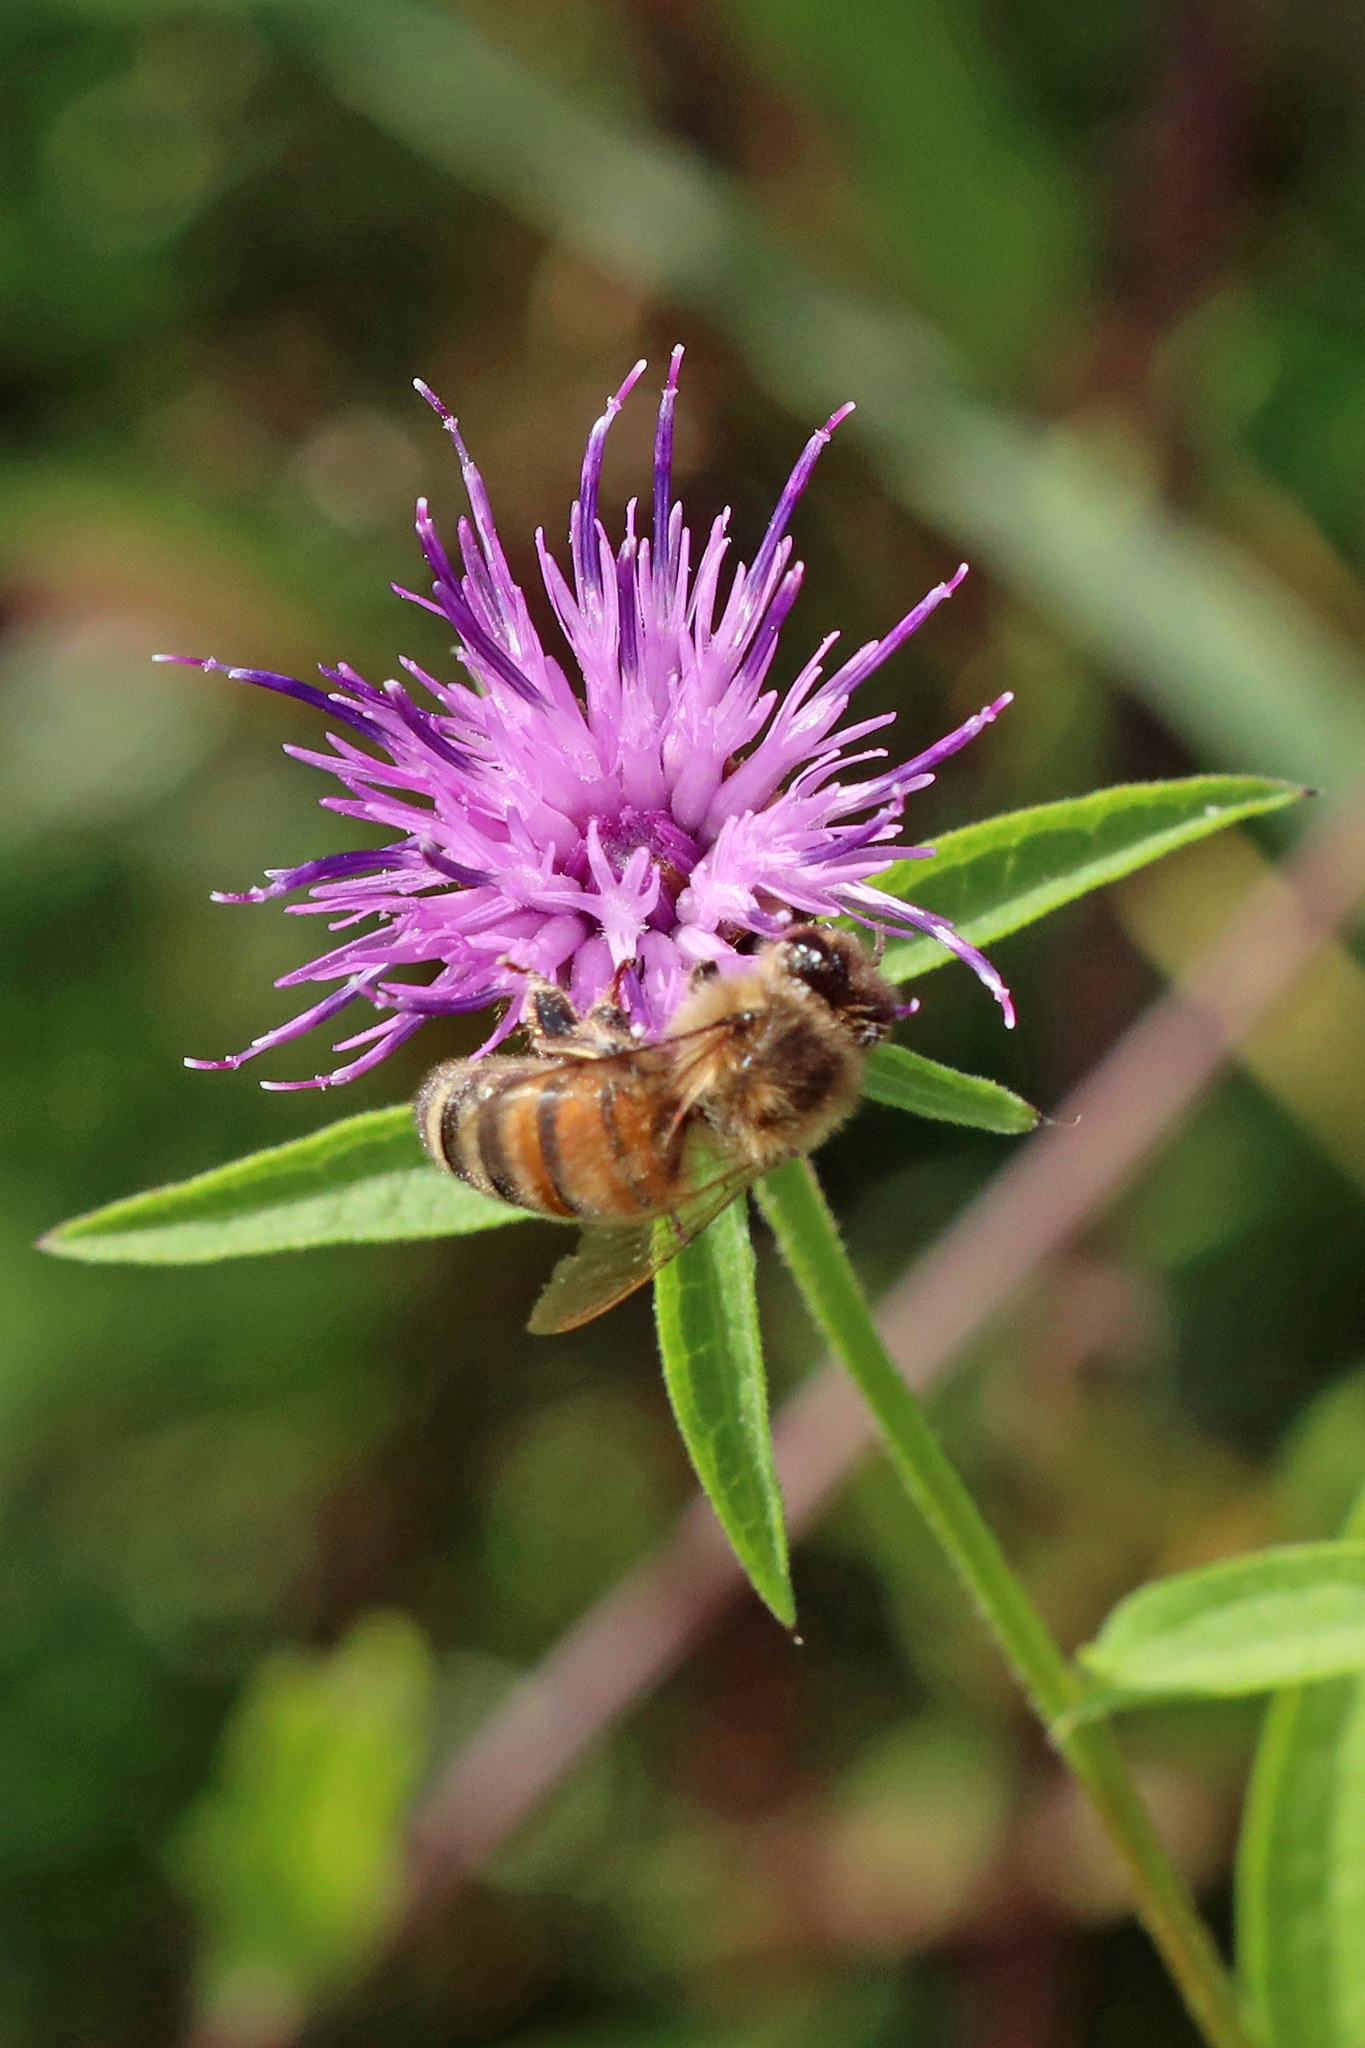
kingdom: Animalia
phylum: Arthropoda
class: Insecta
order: Hymenoptera
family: Apidae
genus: Apis
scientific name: Apis mellifera
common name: Honey bee
